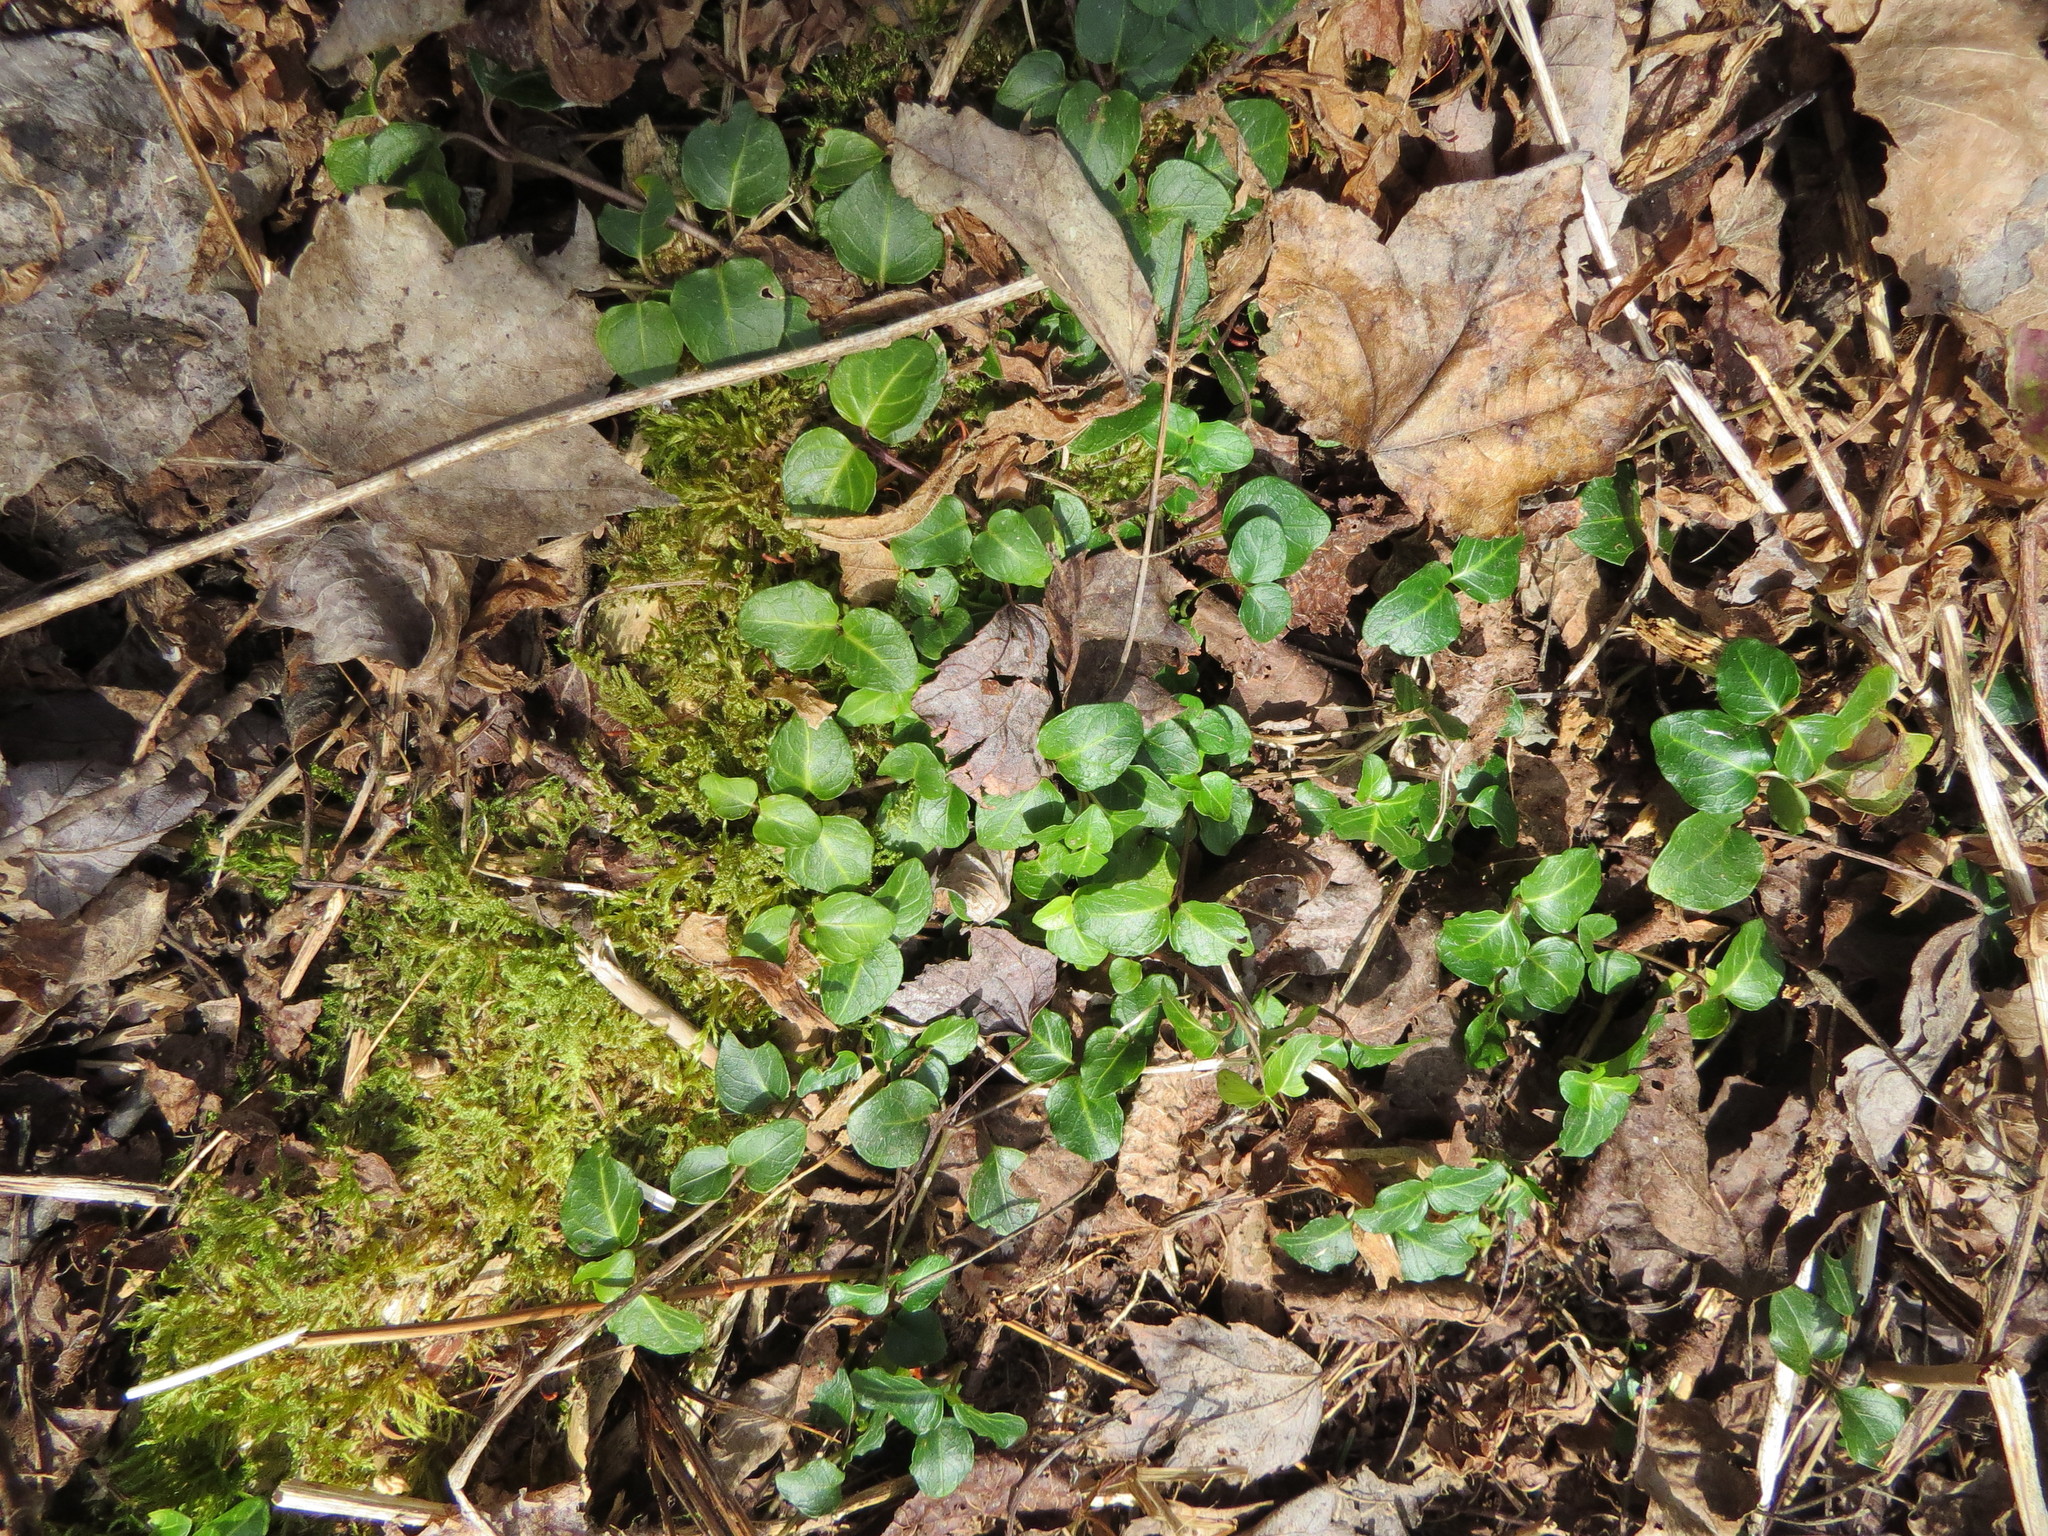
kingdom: Plantae
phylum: Tracheophyta
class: Magnoliopsida
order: Gentianales
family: Rubiaceae
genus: Mitchella
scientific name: Mitchella repens
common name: Partridge-berry
